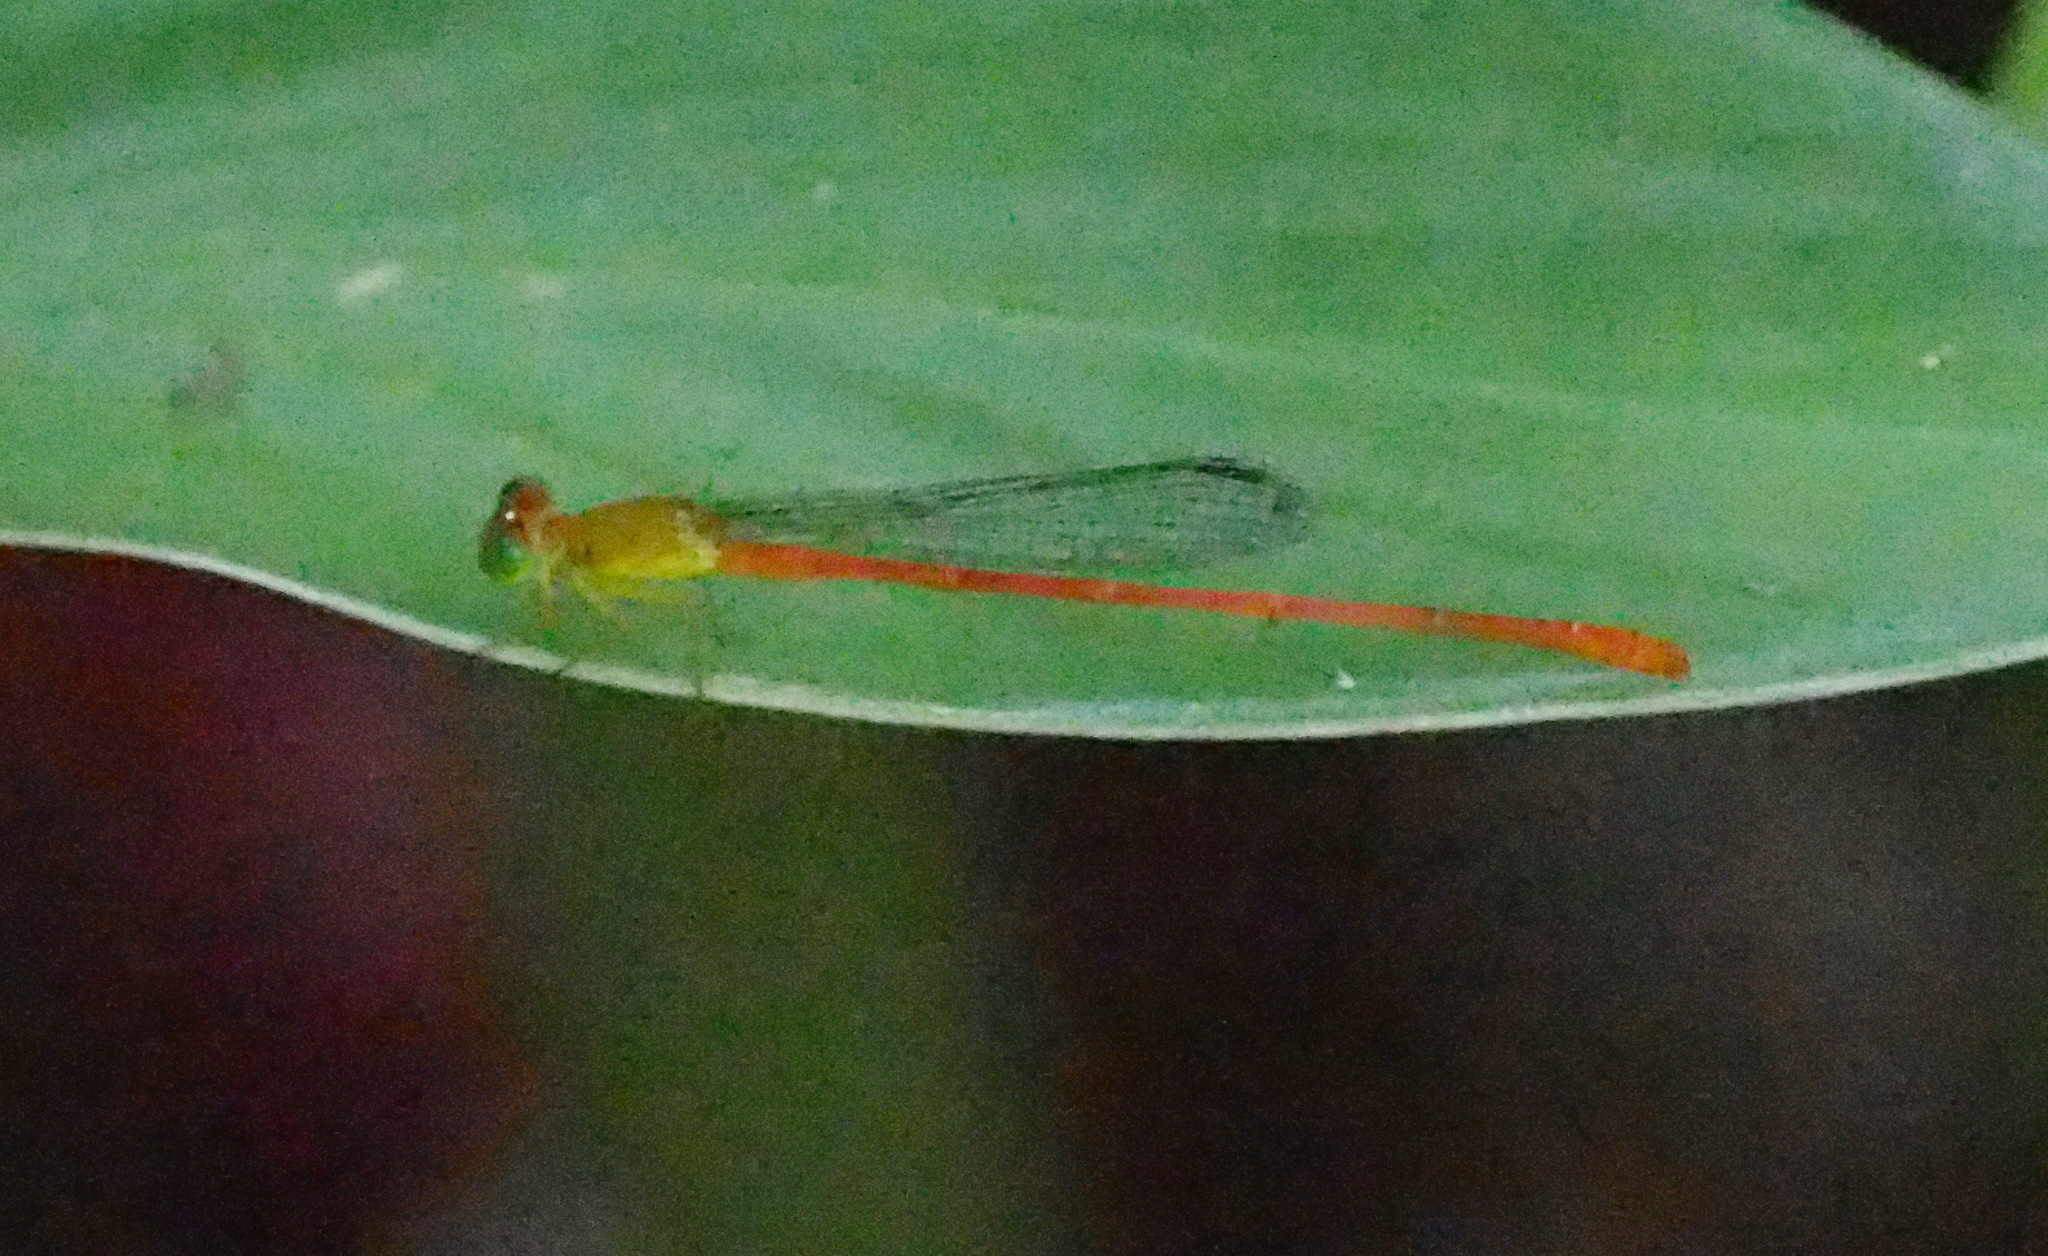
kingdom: Animalia
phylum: Arthropoda
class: Insecta
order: Odonata
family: Coenagrionidae
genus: Ceriagrion
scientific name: Ceriagrion auranticum
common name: Orange-tailed sprite
